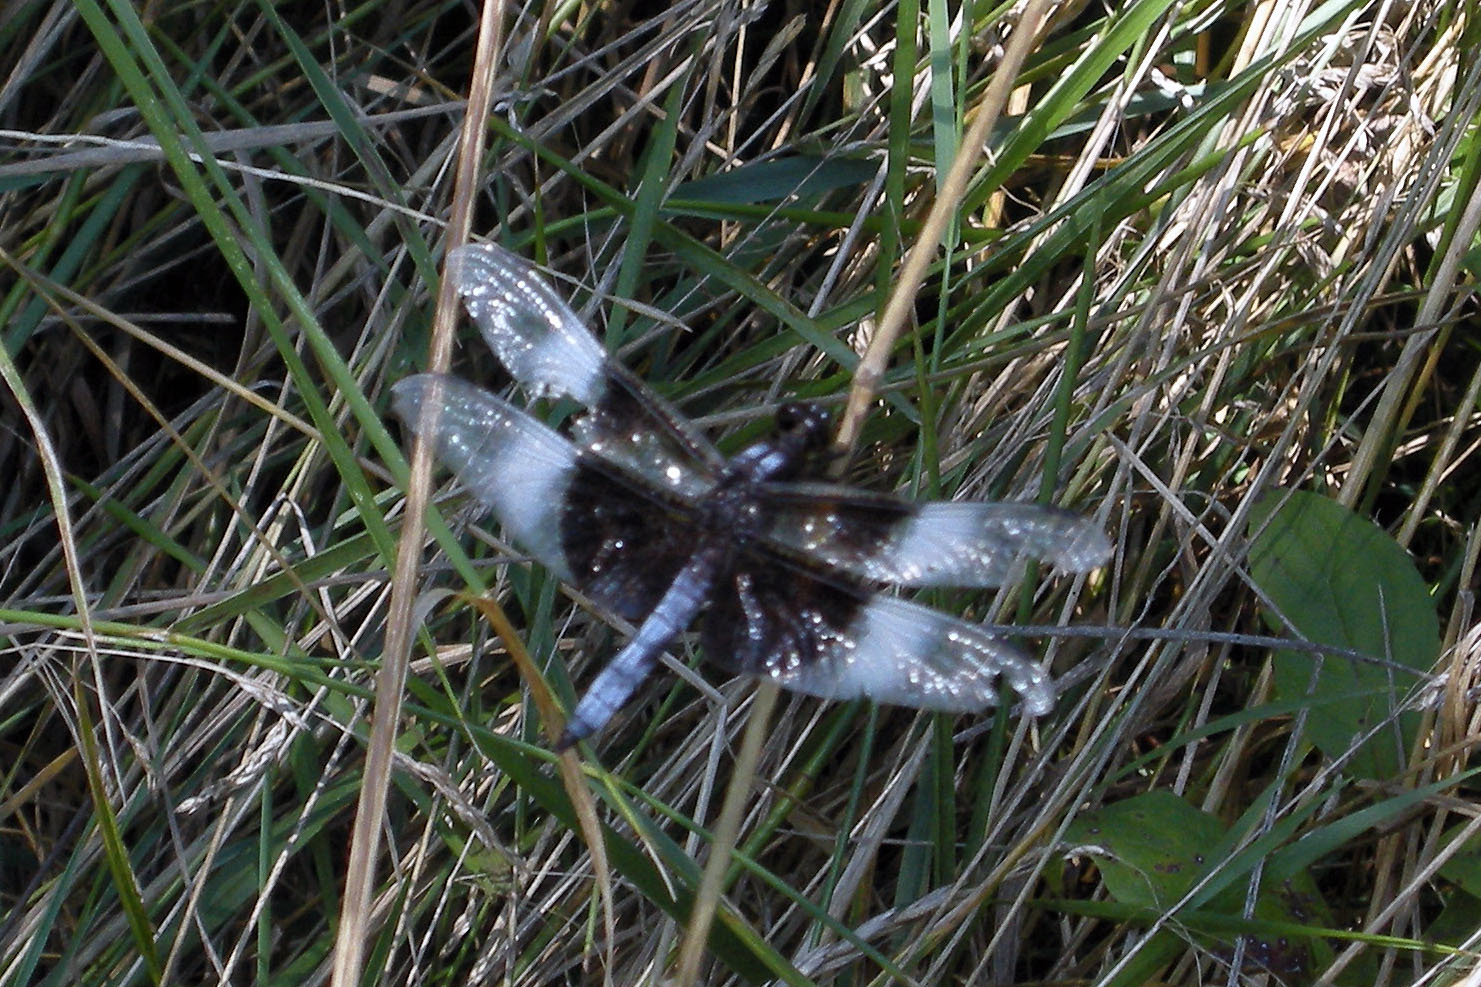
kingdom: Animalia
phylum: Arthropoda
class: Insecta
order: Odonata
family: Libellulidae
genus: Libellula
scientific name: Libellula luctuosa
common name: Widow skimmer
